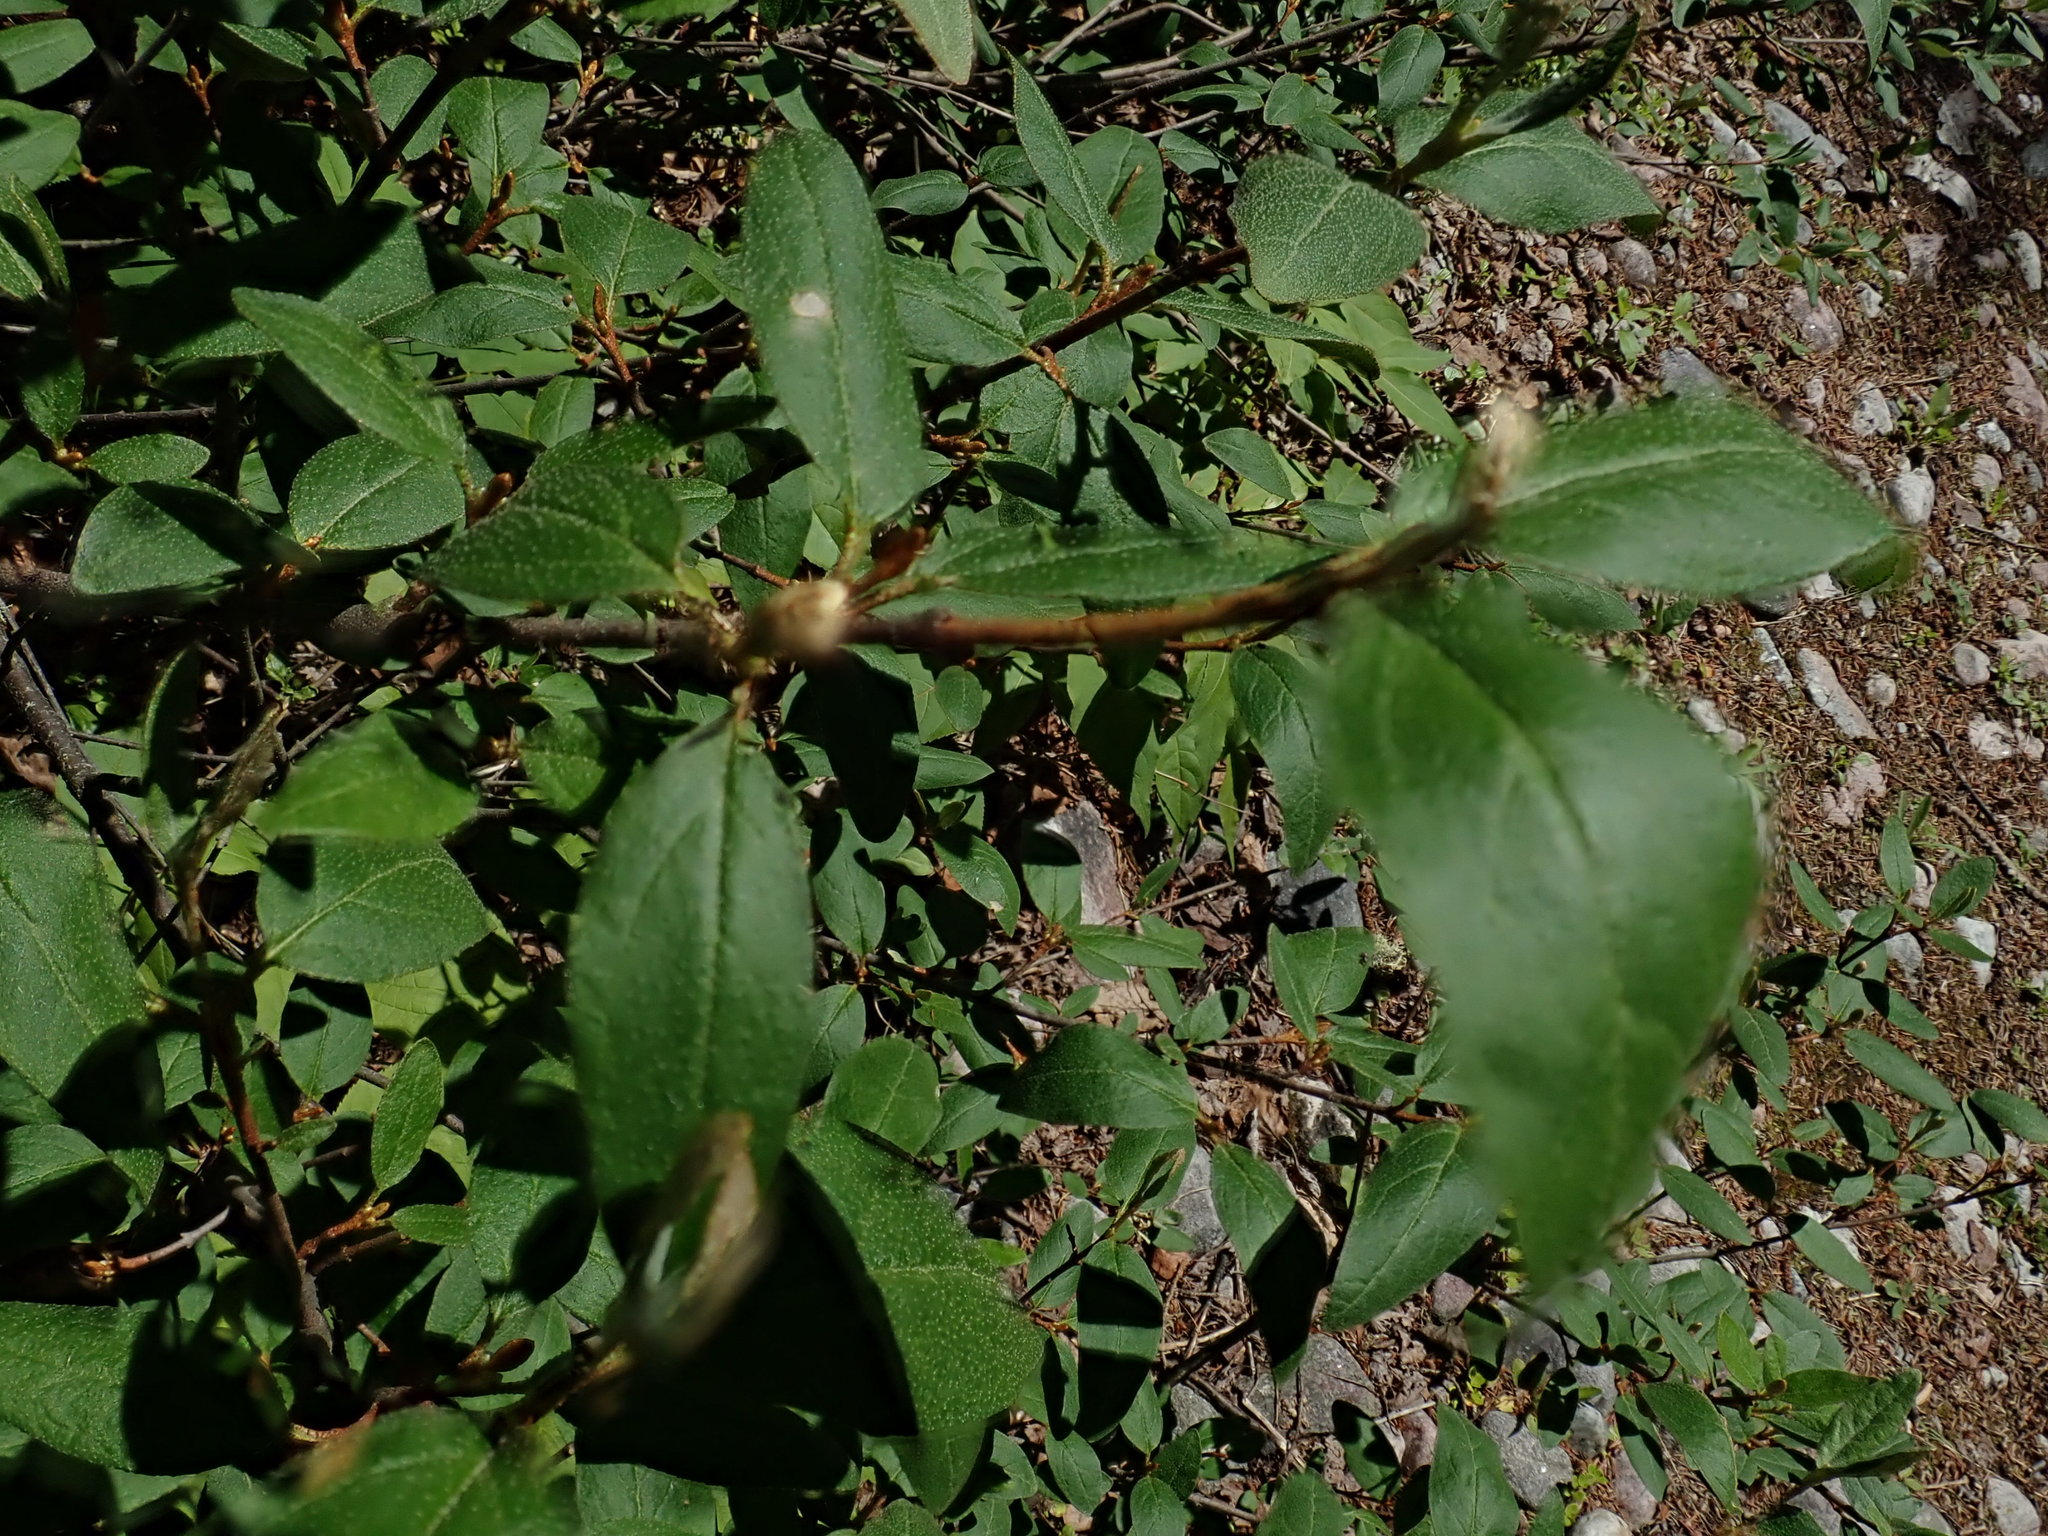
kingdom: Plantae
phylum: Tracheophyta
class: Magnoliopsida
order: Rosales
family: Elaeagnaceae
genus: Shepherdia
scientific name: Shepherdia canadensis
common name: Soapberry
